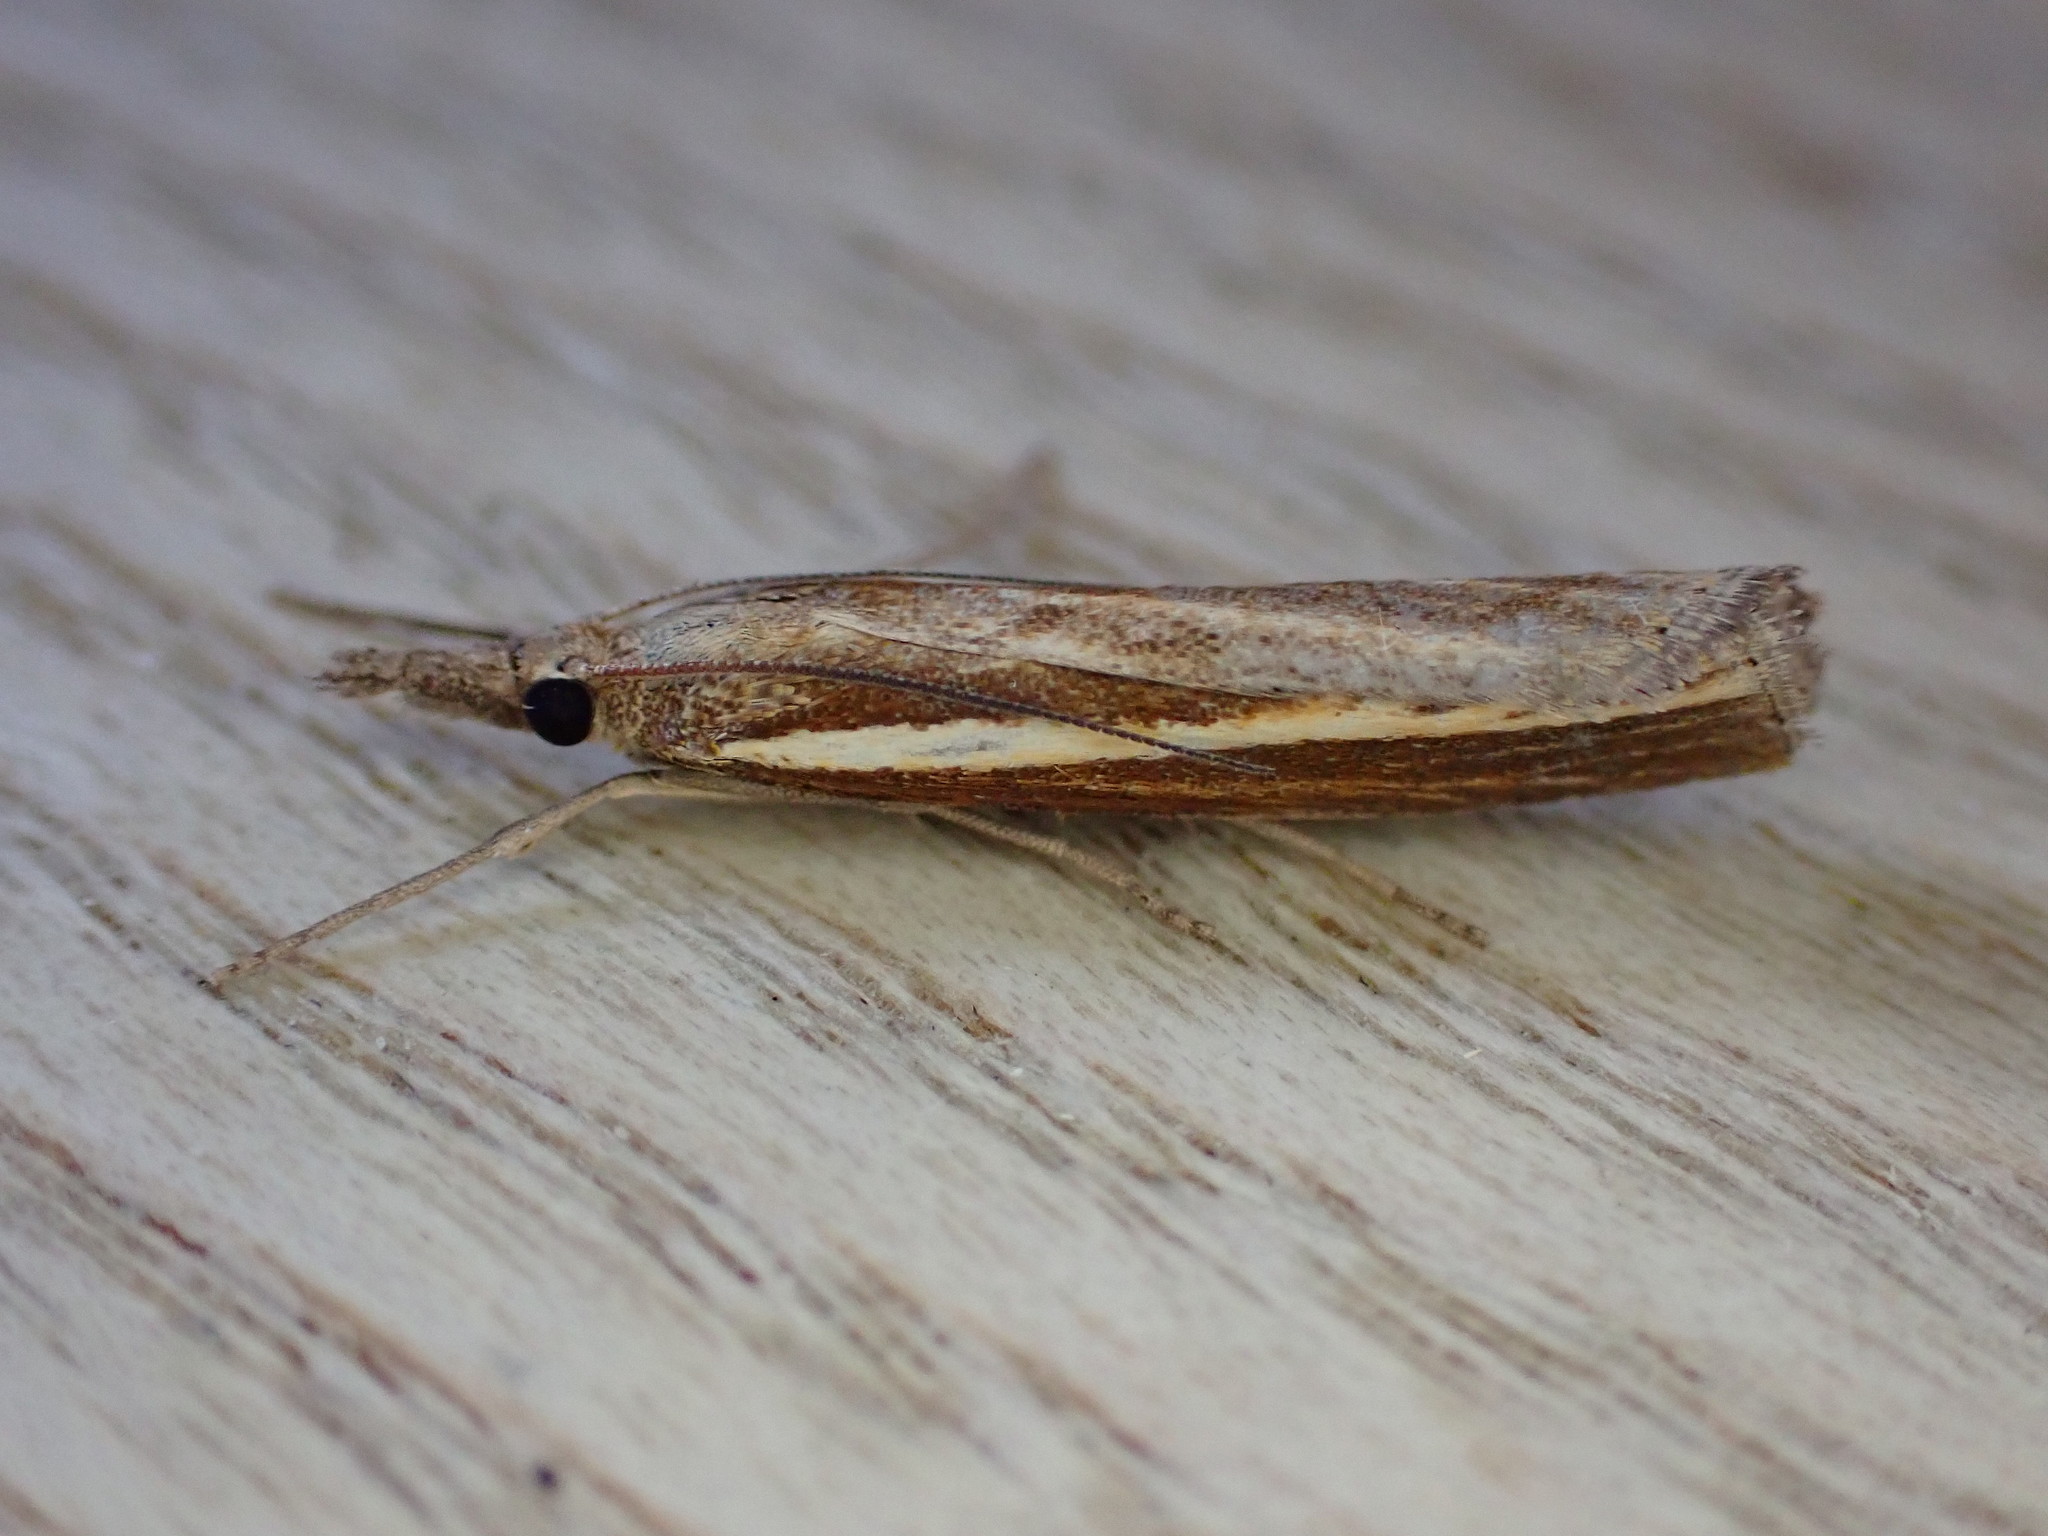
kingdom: Animalia
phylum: Arthropoda
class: Insecta
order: Lepidoptera
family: Crambidae
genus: Agriphila
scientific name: Agriphila tristellus
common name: Common grass-veneer
